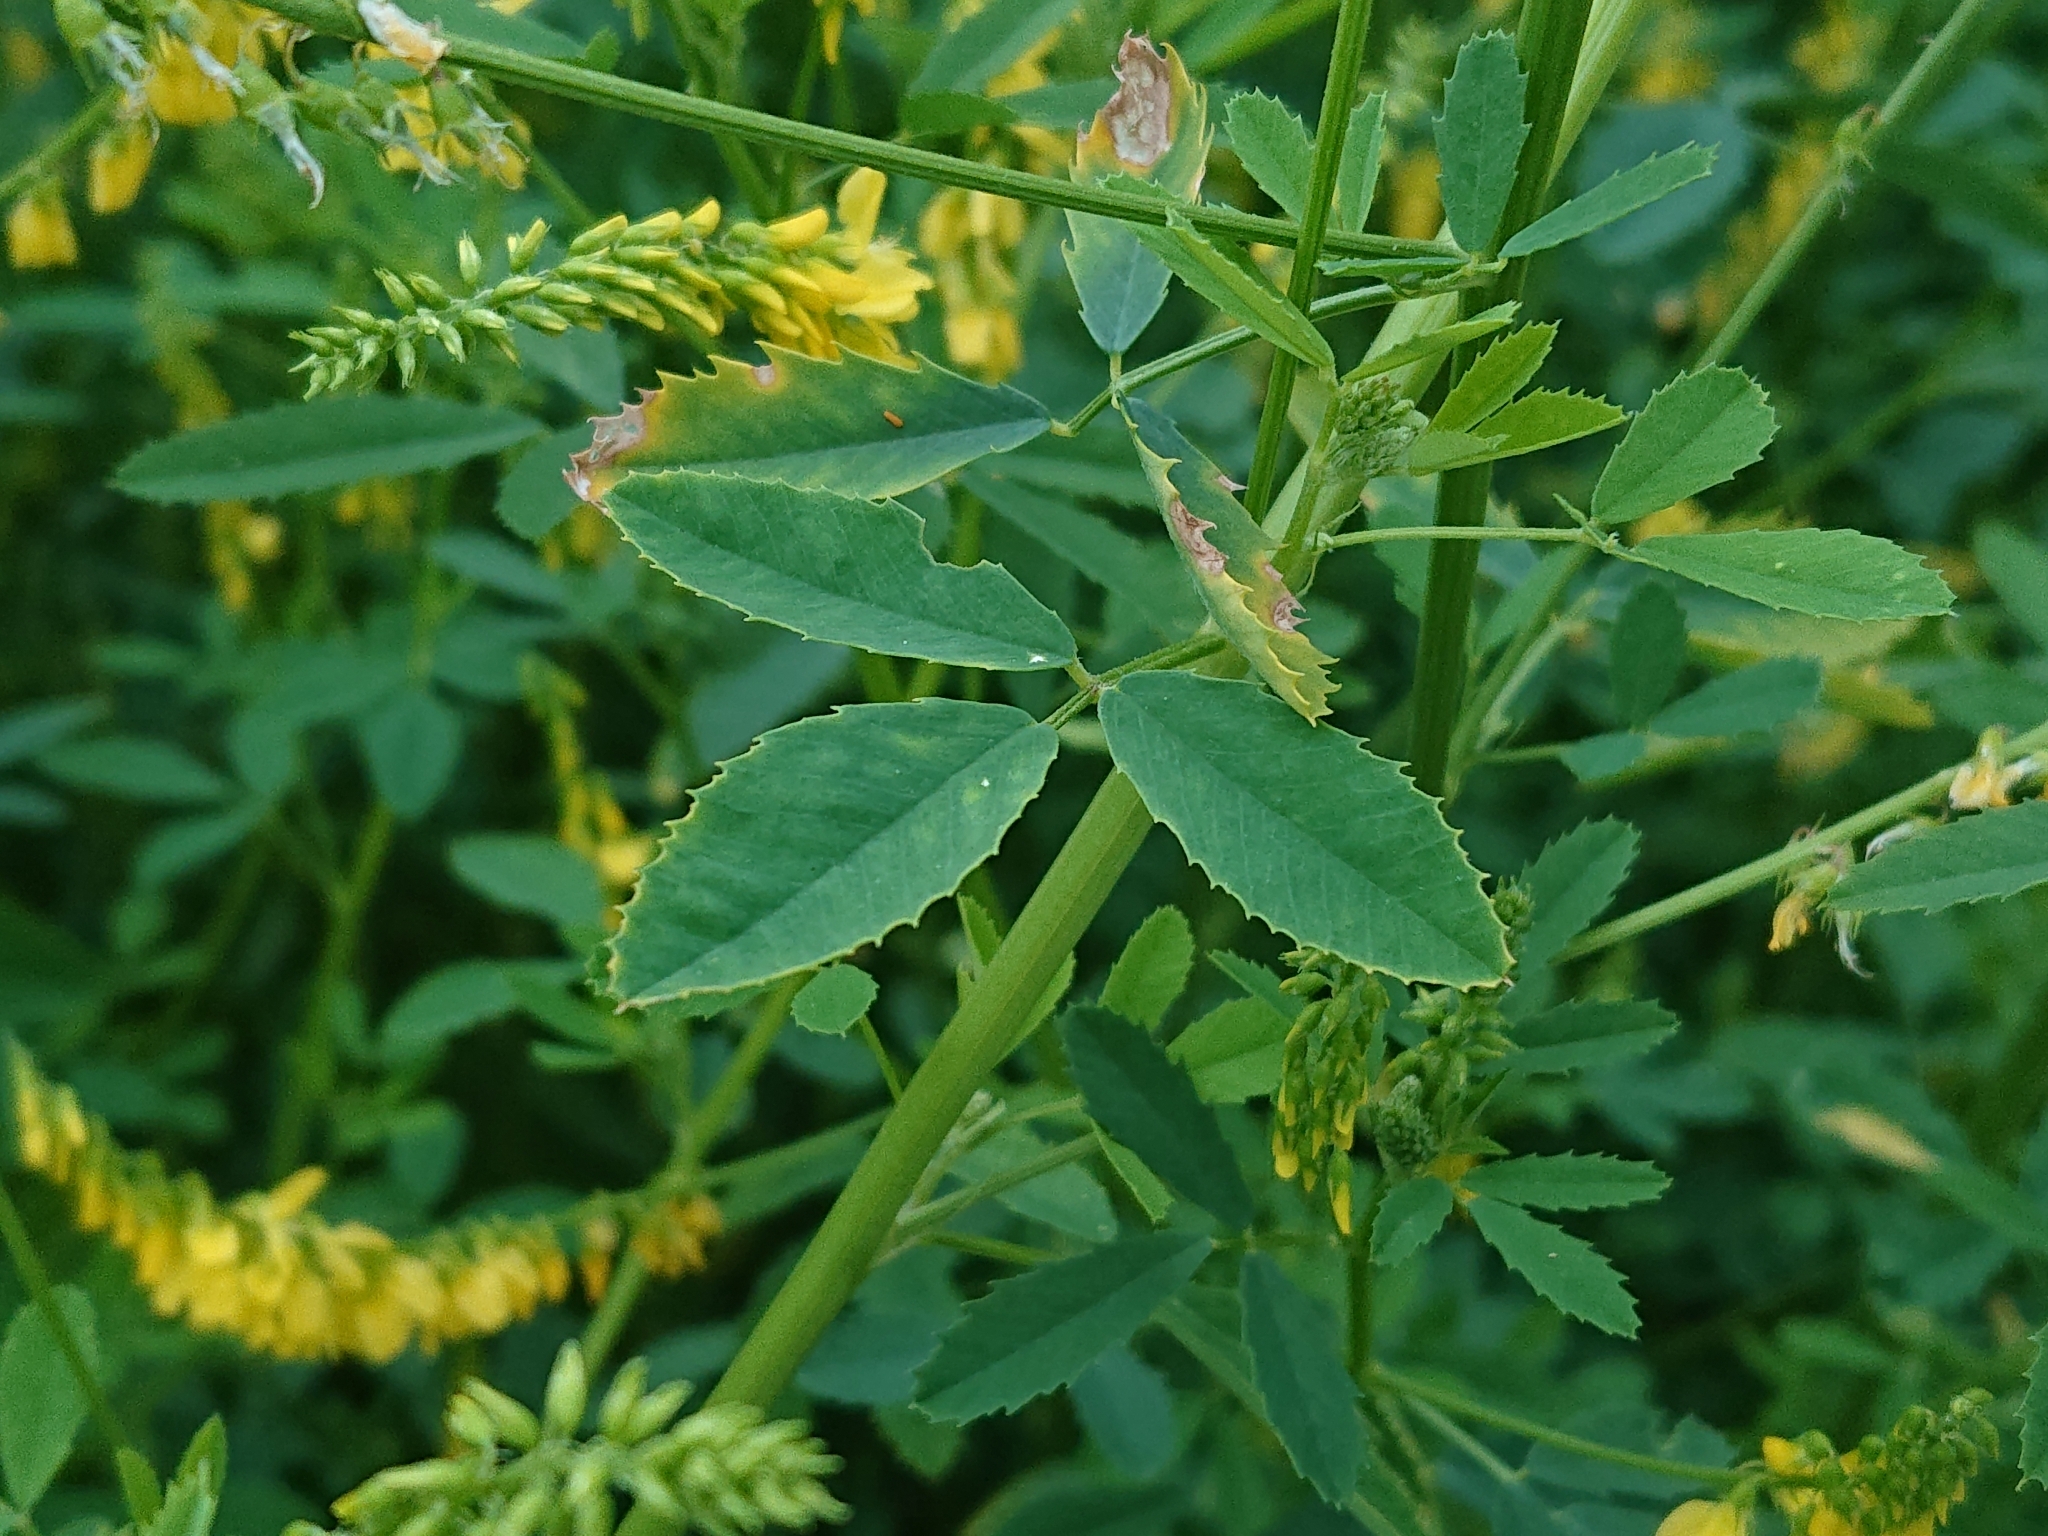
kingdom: Plantae
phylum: Tracheophyta
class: Magnoliopsida
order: Fabales
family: Fabaceae
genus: Melilotus
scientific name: Melilotus officinalis
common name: Sweetclover
